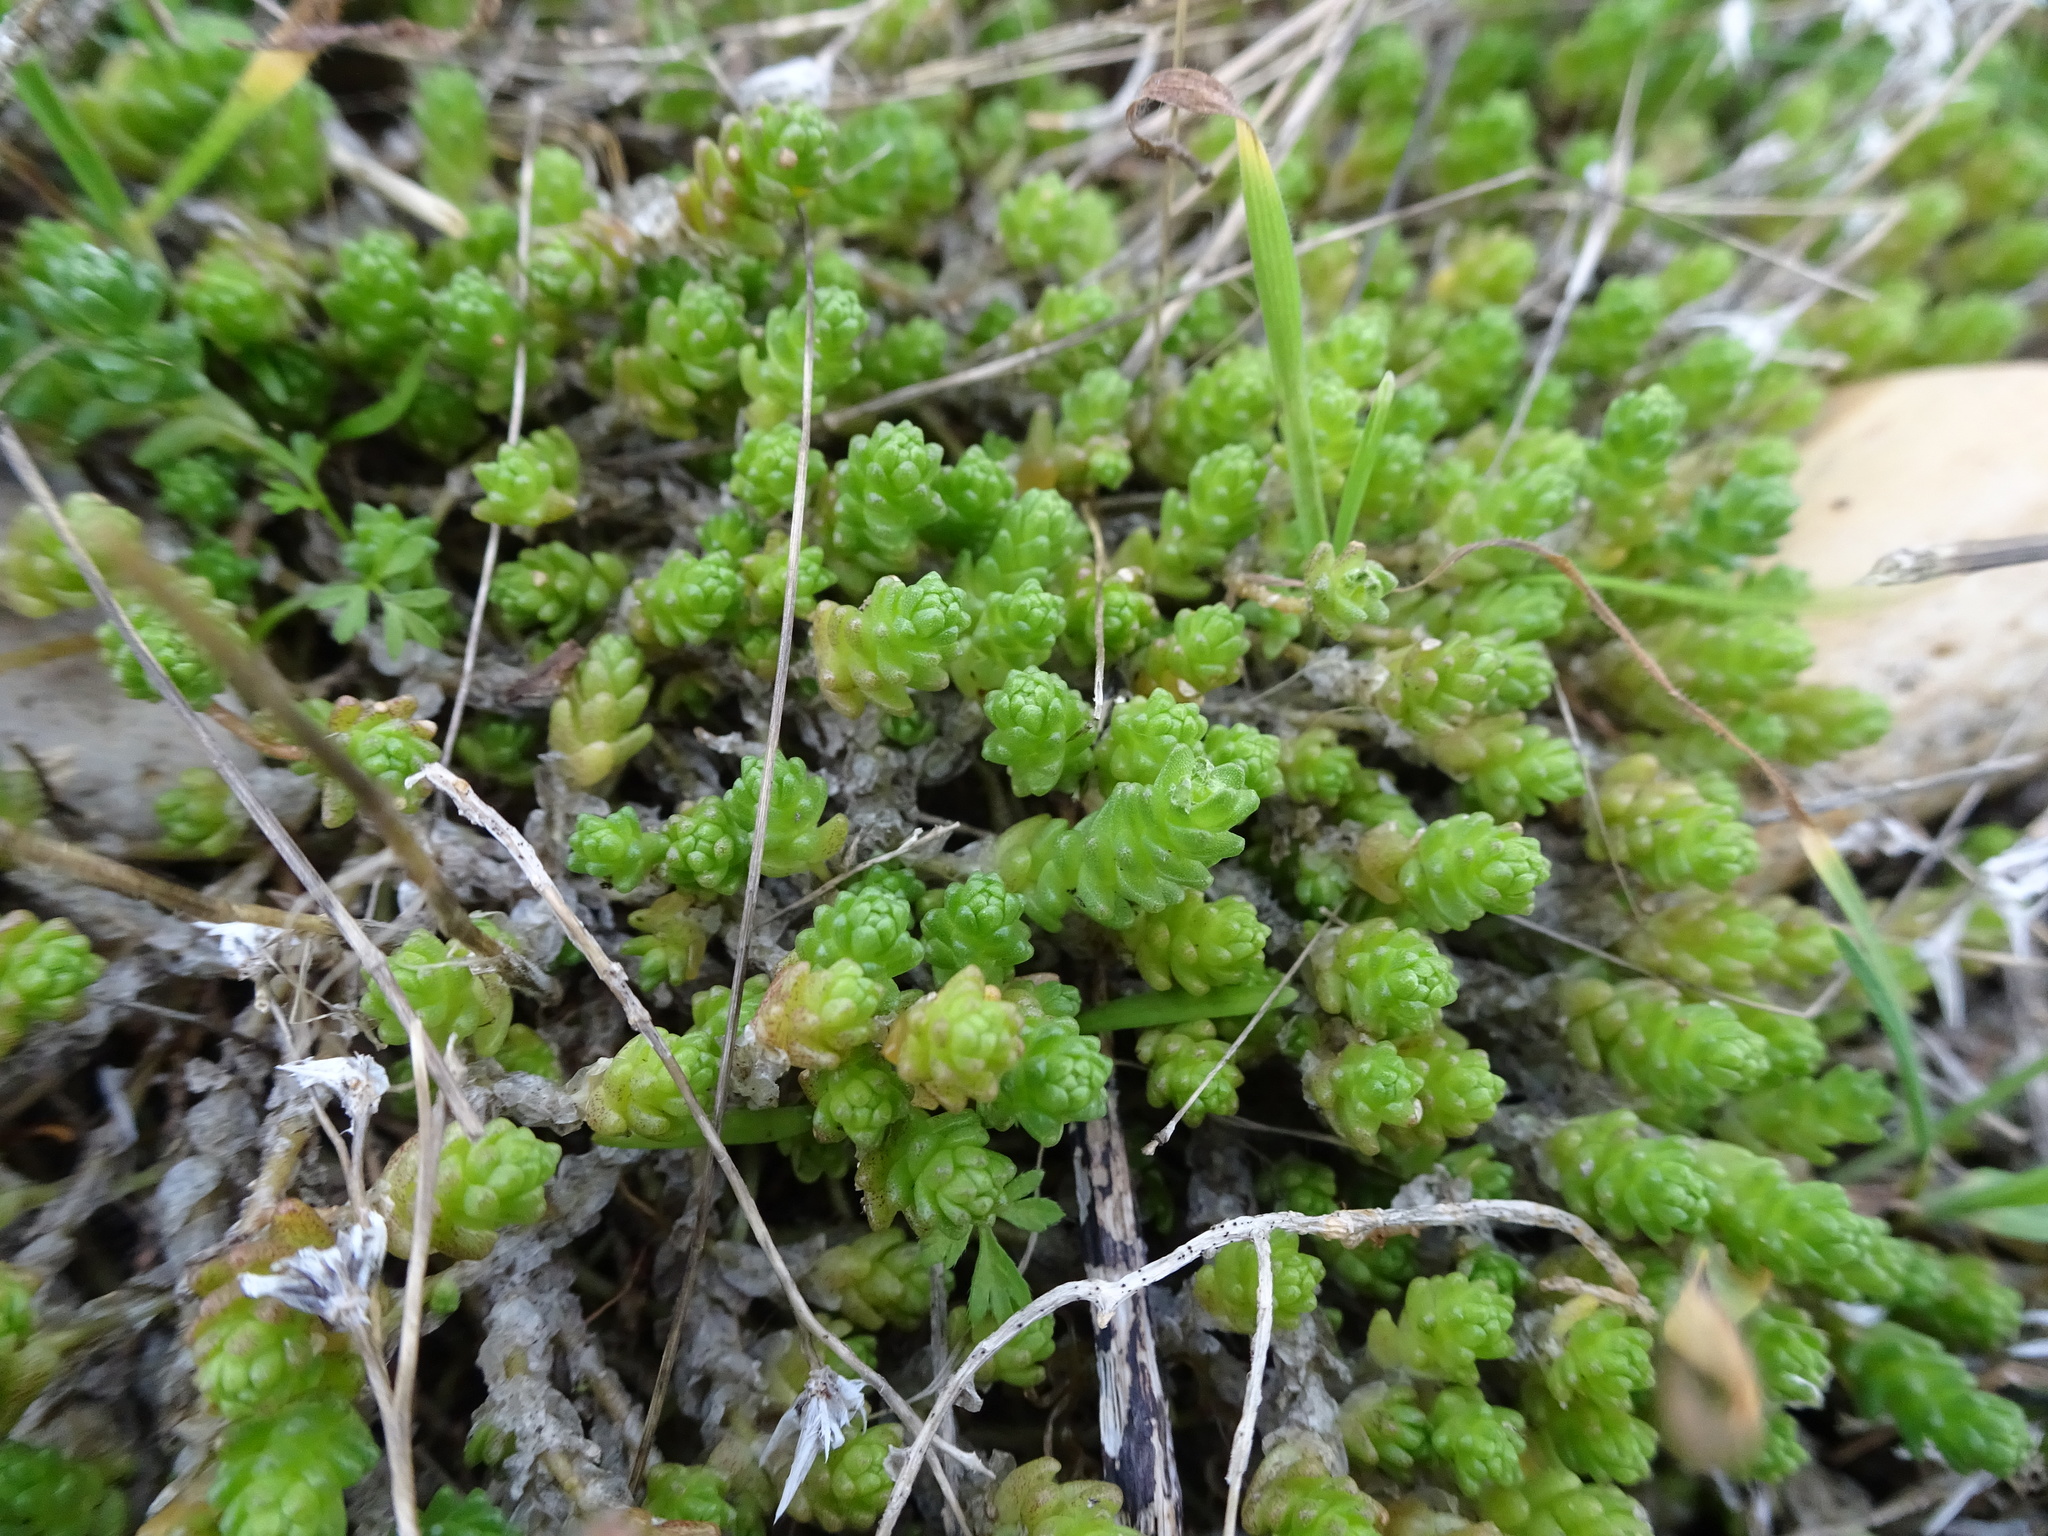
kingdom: Plantae
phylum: Tracheophyta
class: Magnoliopsida
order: Saxifragales
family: Crassulaceae
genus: Sedum
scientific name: Sedum acre
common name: Biting stonecrop
